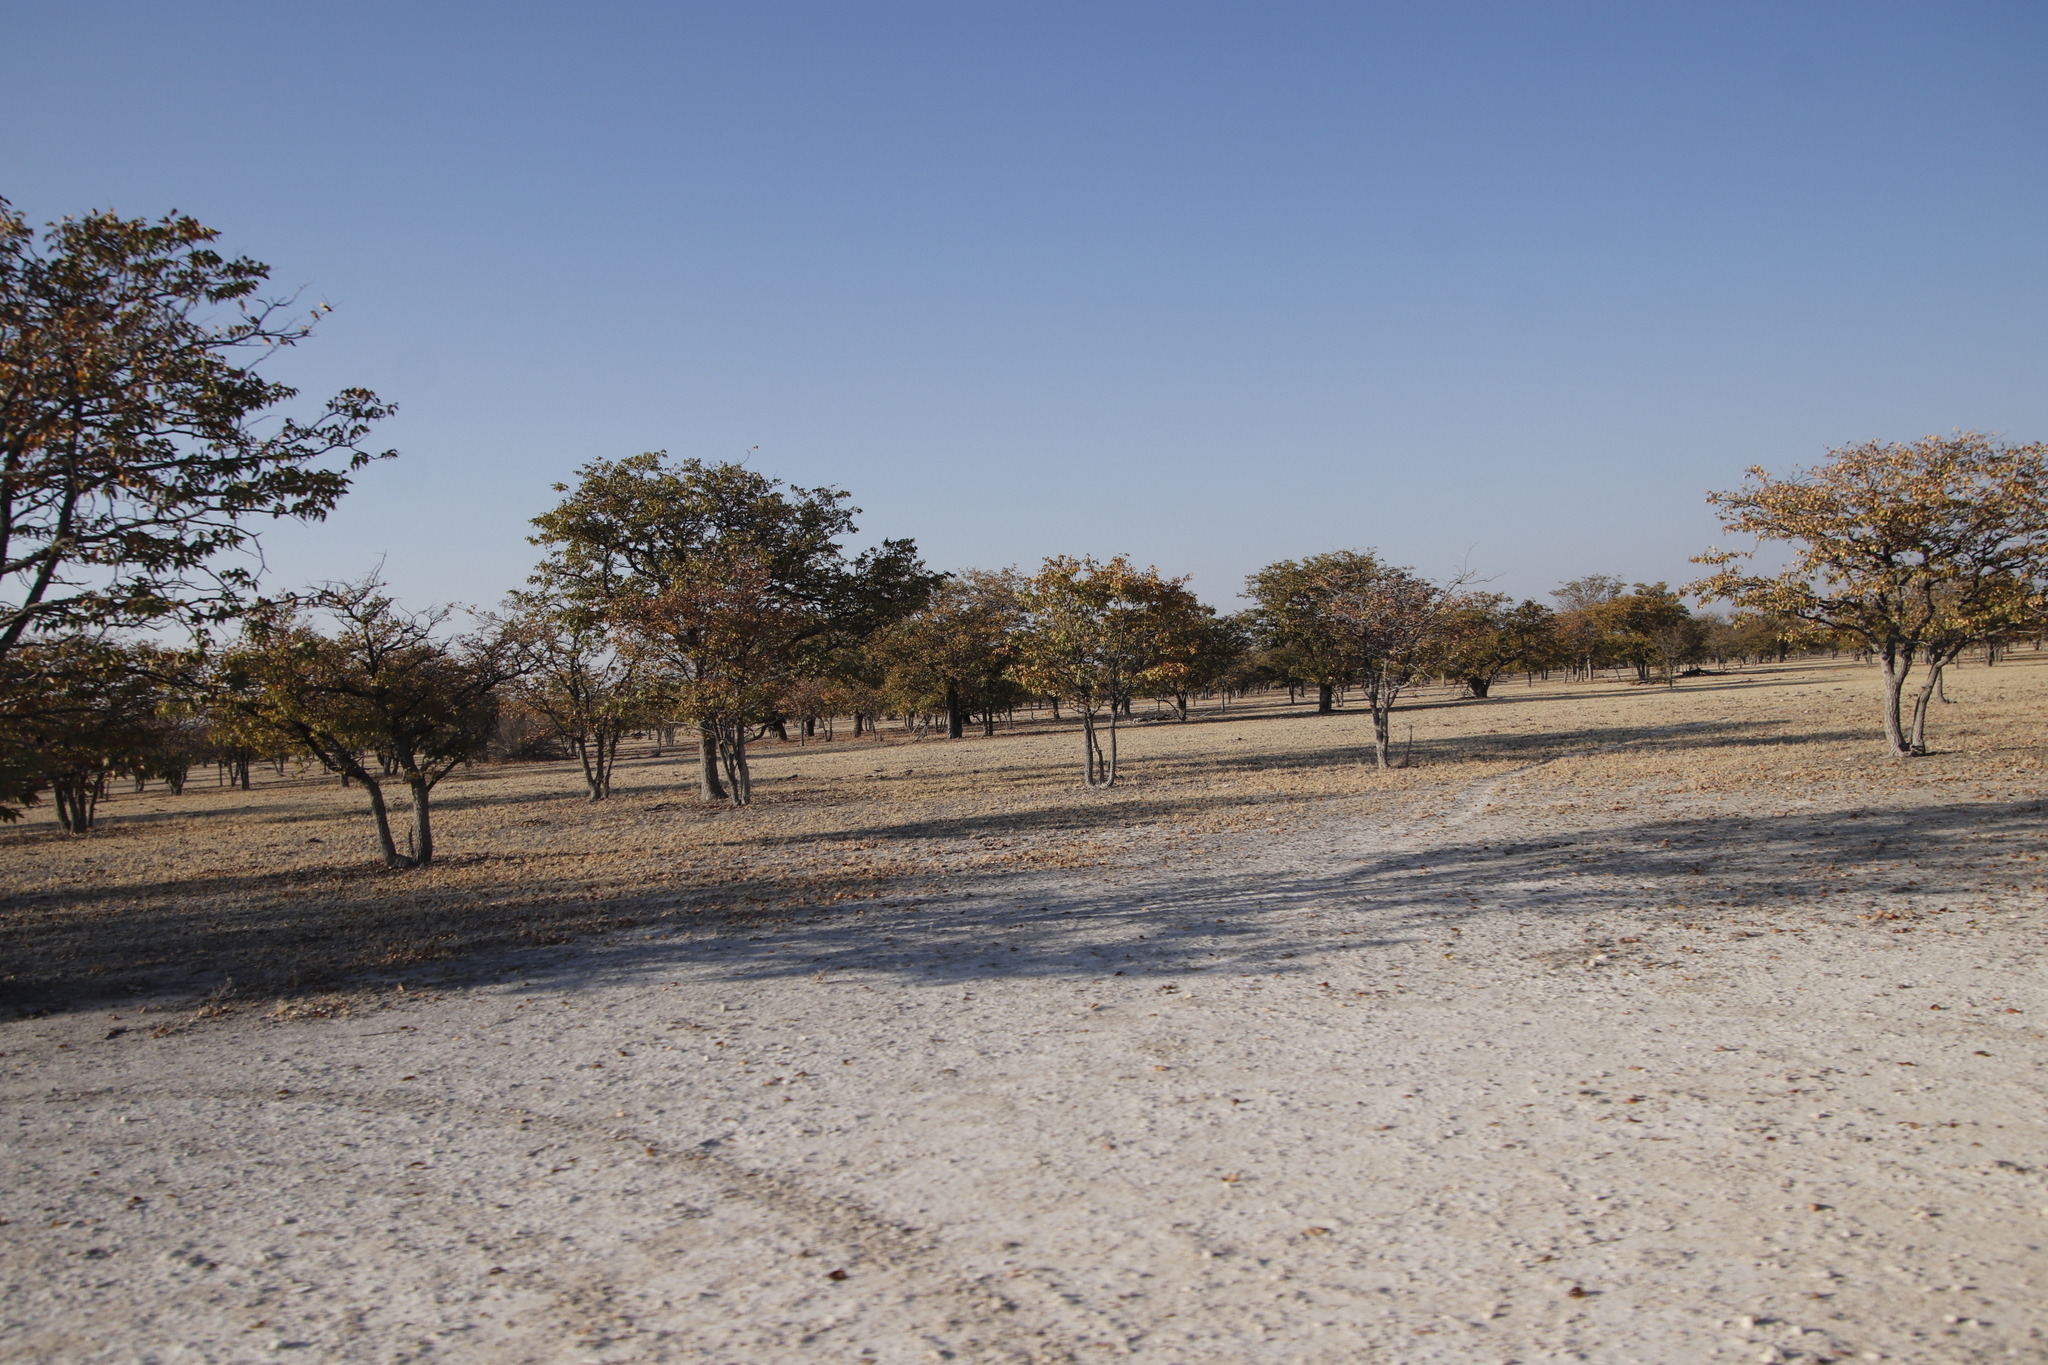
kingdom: Plantae
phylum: Tracheophyta
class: Magnoliopsida
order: Fabales
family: Fabaceae
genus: Colophospermum
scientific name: Colophospermum mopane
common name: Mopane
